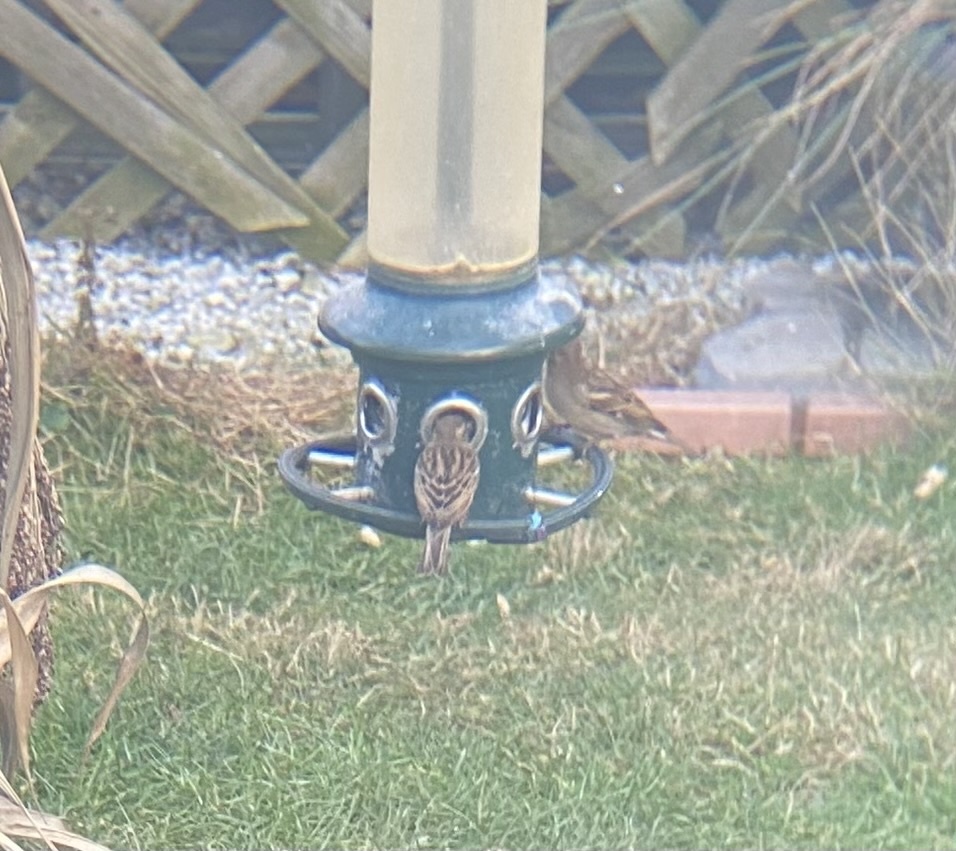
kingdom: Animalia
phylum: Chordata
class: Aves
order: Passeriformes
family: Passeridae
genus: Passer
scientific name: Passer domesticus
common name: House sparrow
